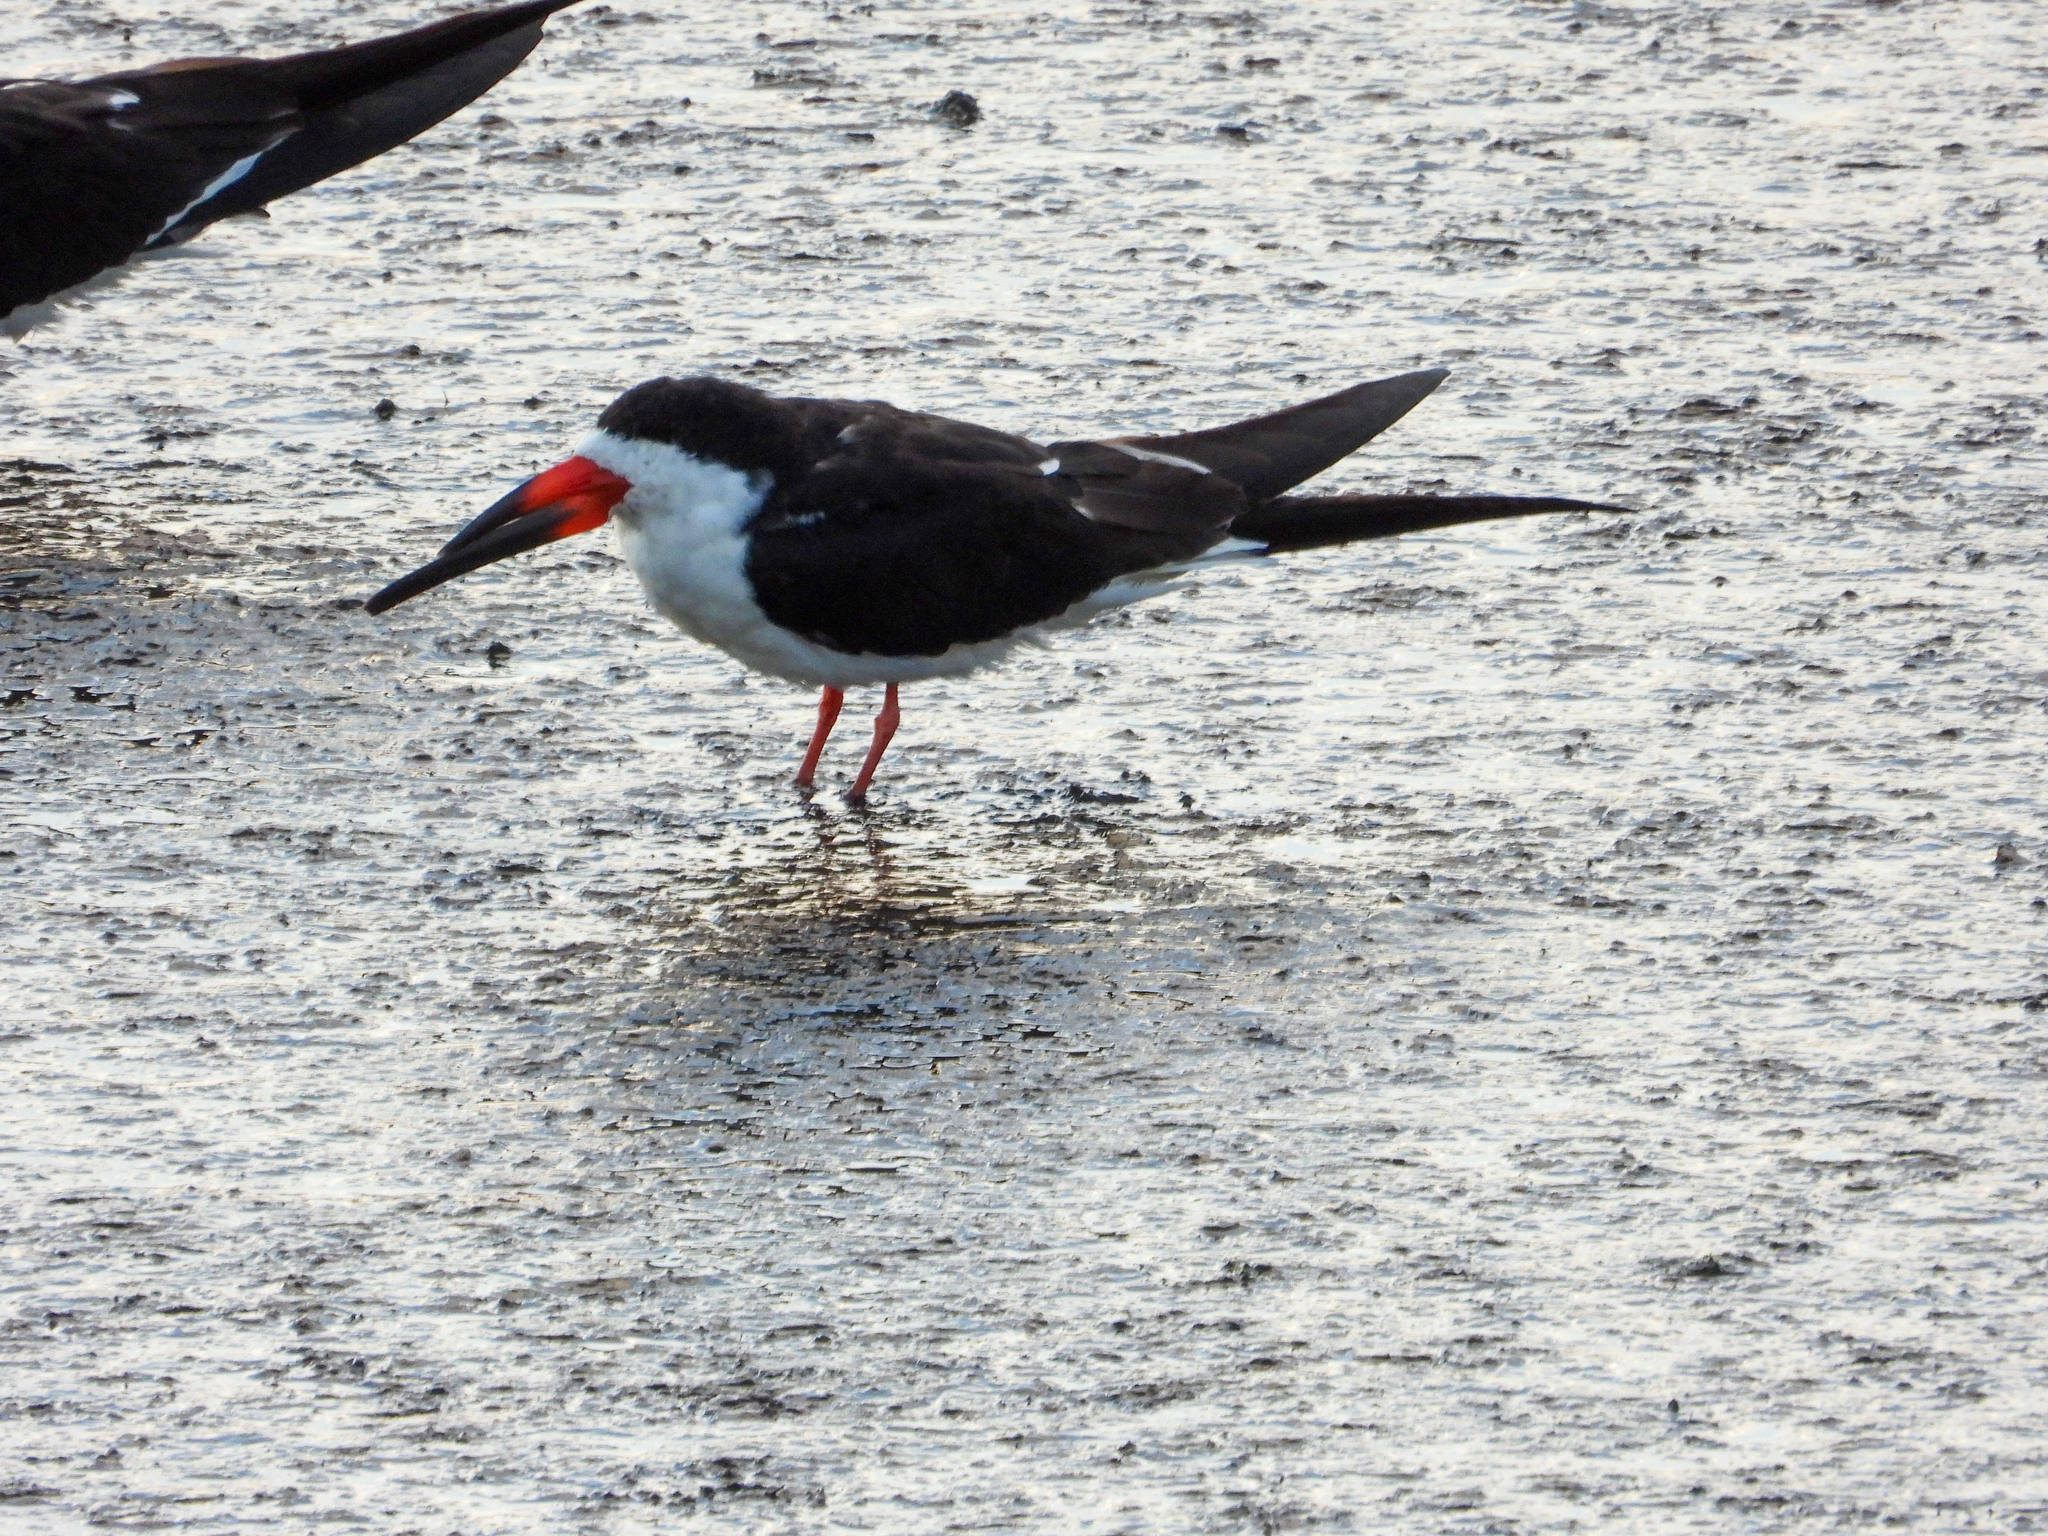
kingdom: Animalia
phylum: Chordata
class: Aves
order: Charadriiformes
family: Laridae
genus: Rynchops
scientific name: Rynchops niger
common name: Black skimmer
